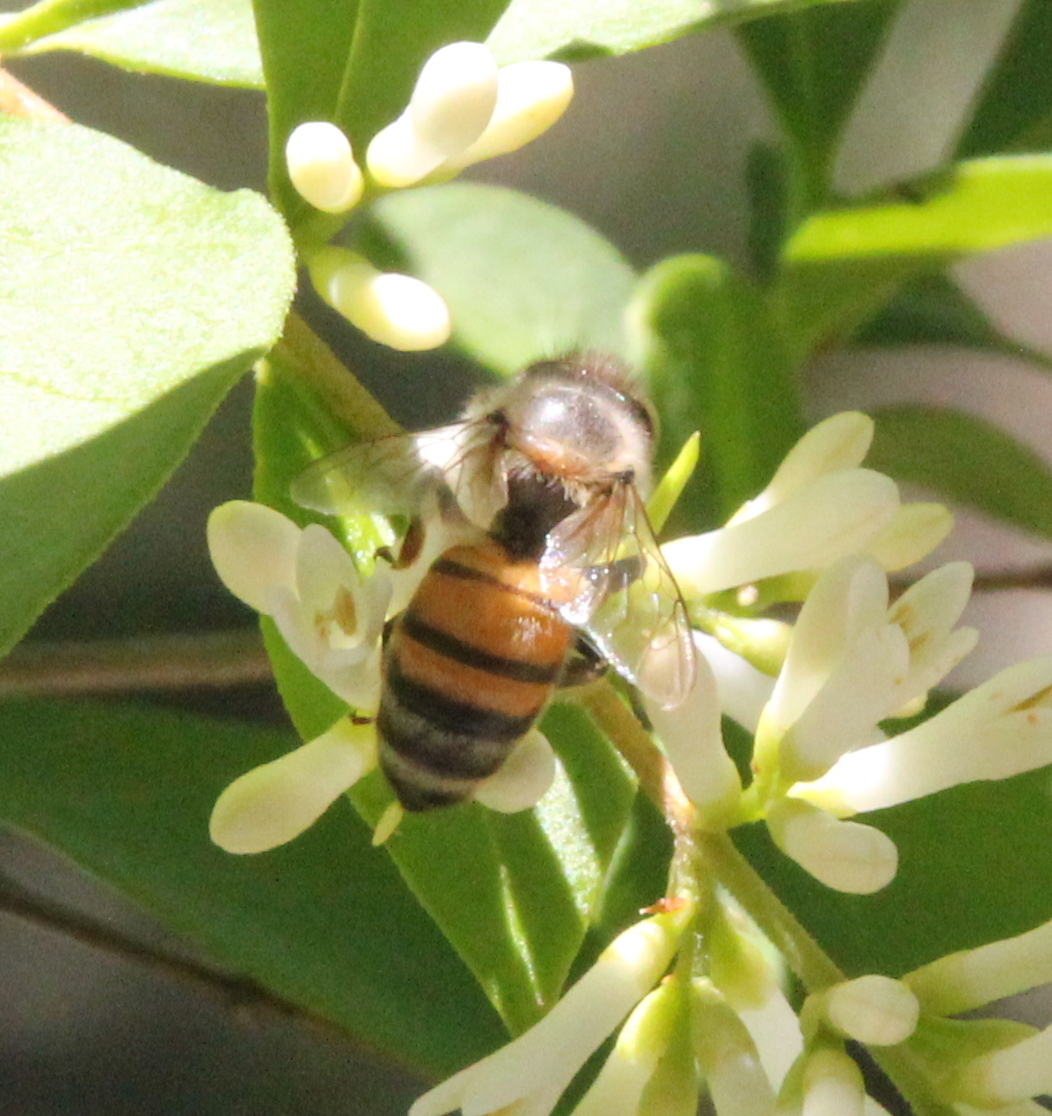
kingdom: Animalia
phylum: Arthropoda
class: Insecta
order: Hymenoptera
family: Apidae
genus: Apis
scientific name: Apis mellifera
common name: Honey bee
